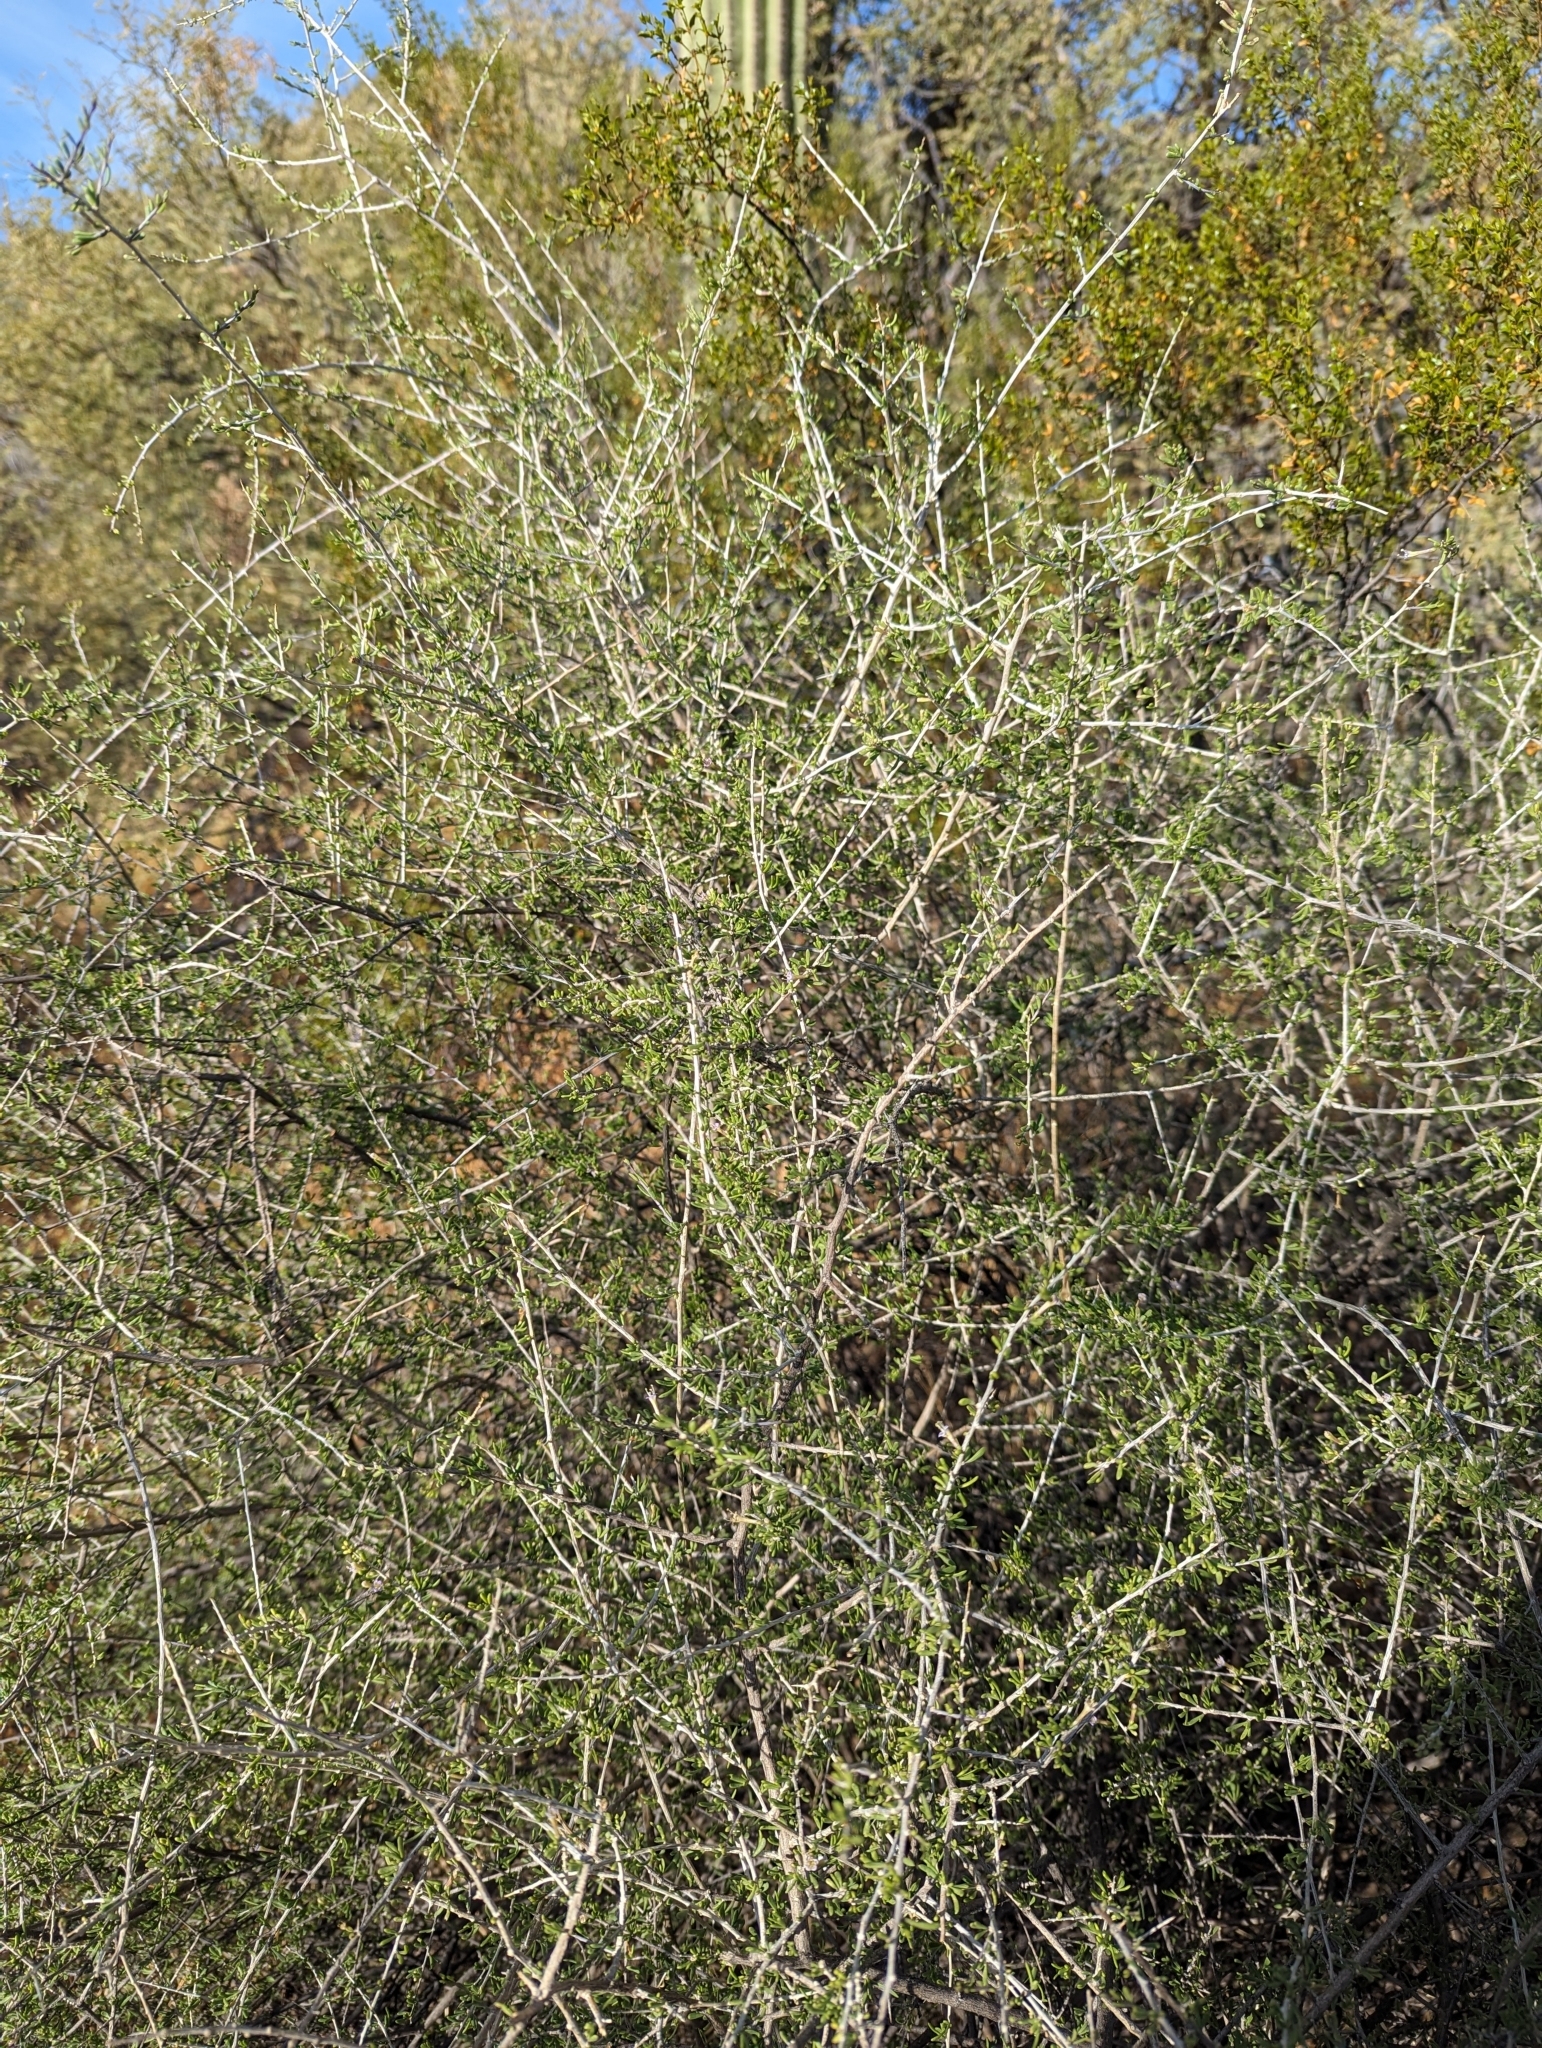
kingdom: Plantae
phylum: Tracheophyta
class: Magnoliopsida
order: Solanales
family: Solanaceae
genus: Lycium
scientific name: Lycium andersonii
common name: Water-jacket
